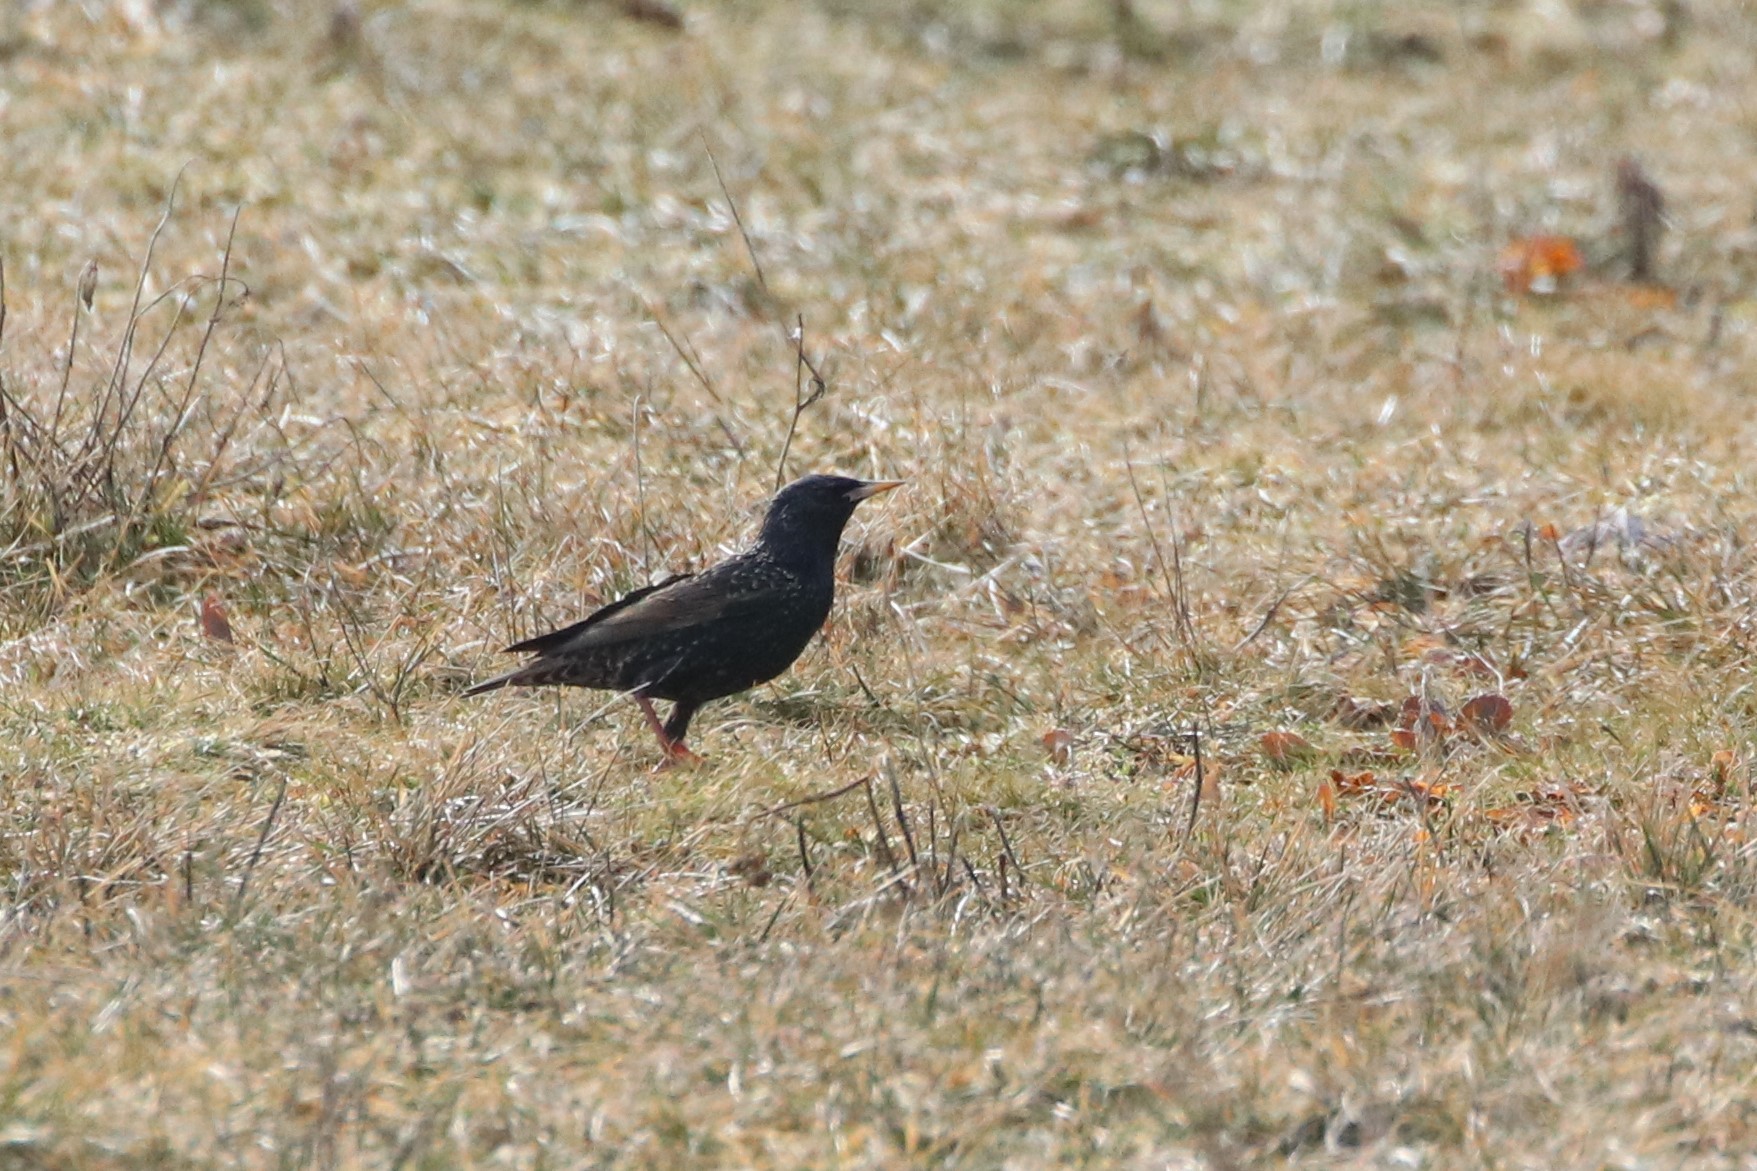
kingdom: Animalia
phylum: Chordata
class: Aves
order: Passeriformes
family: Sturnidae
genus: Sturnus
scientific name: Sturnus vulgaris
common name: Common starling
